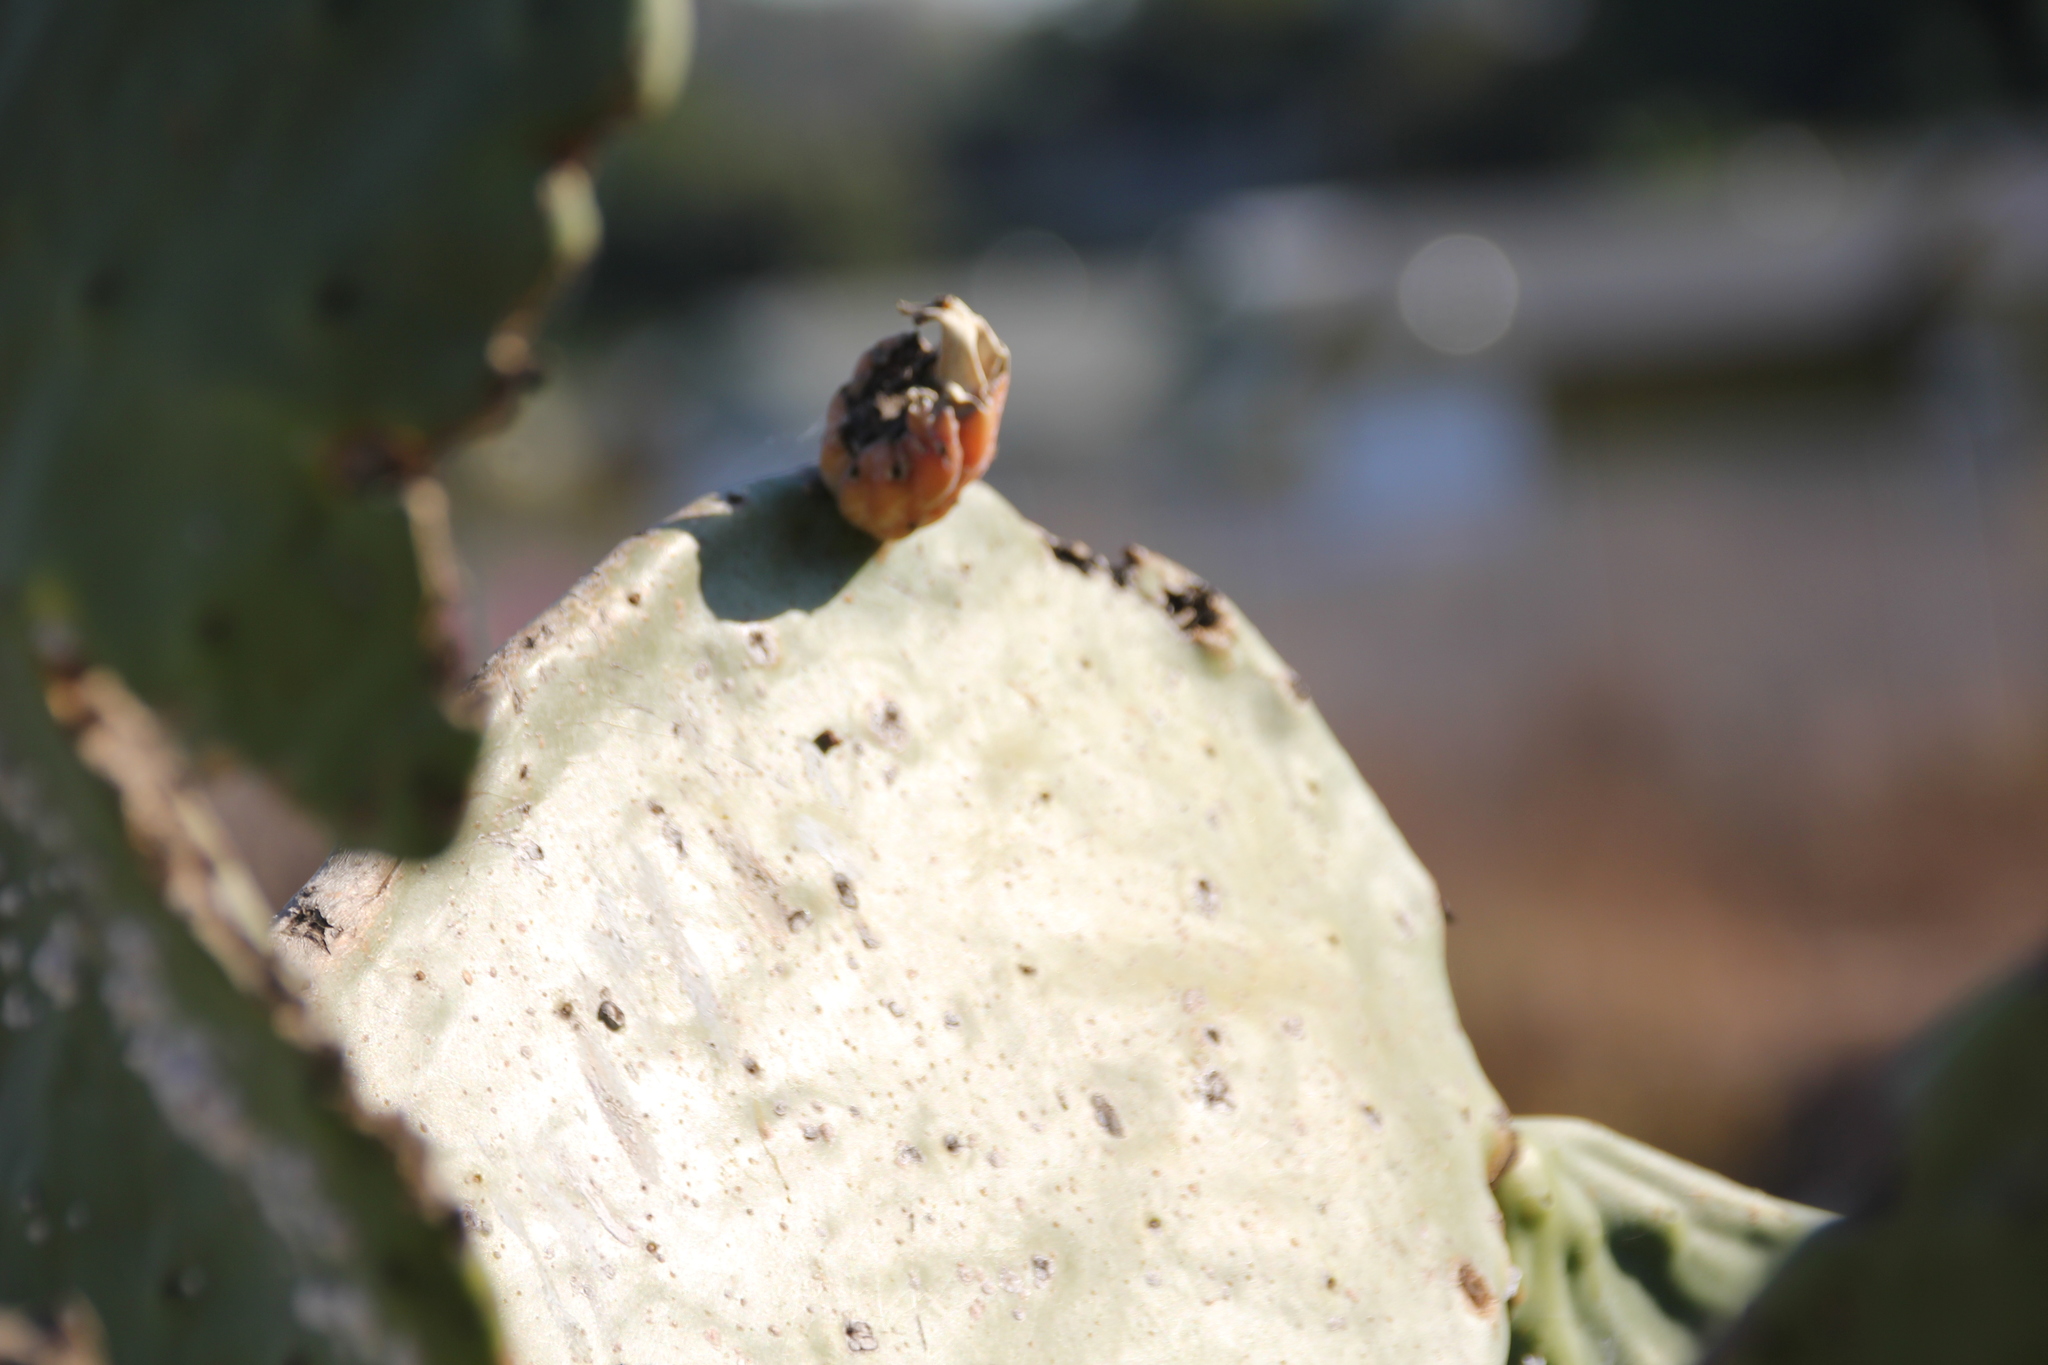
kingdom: Plantae
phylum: Tracheophyta
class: Magnoliopsida
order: Caryophyllales
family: Cactaceae
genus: Opuntia
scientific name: Opuntia ficus-indica
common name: Barbary fig
